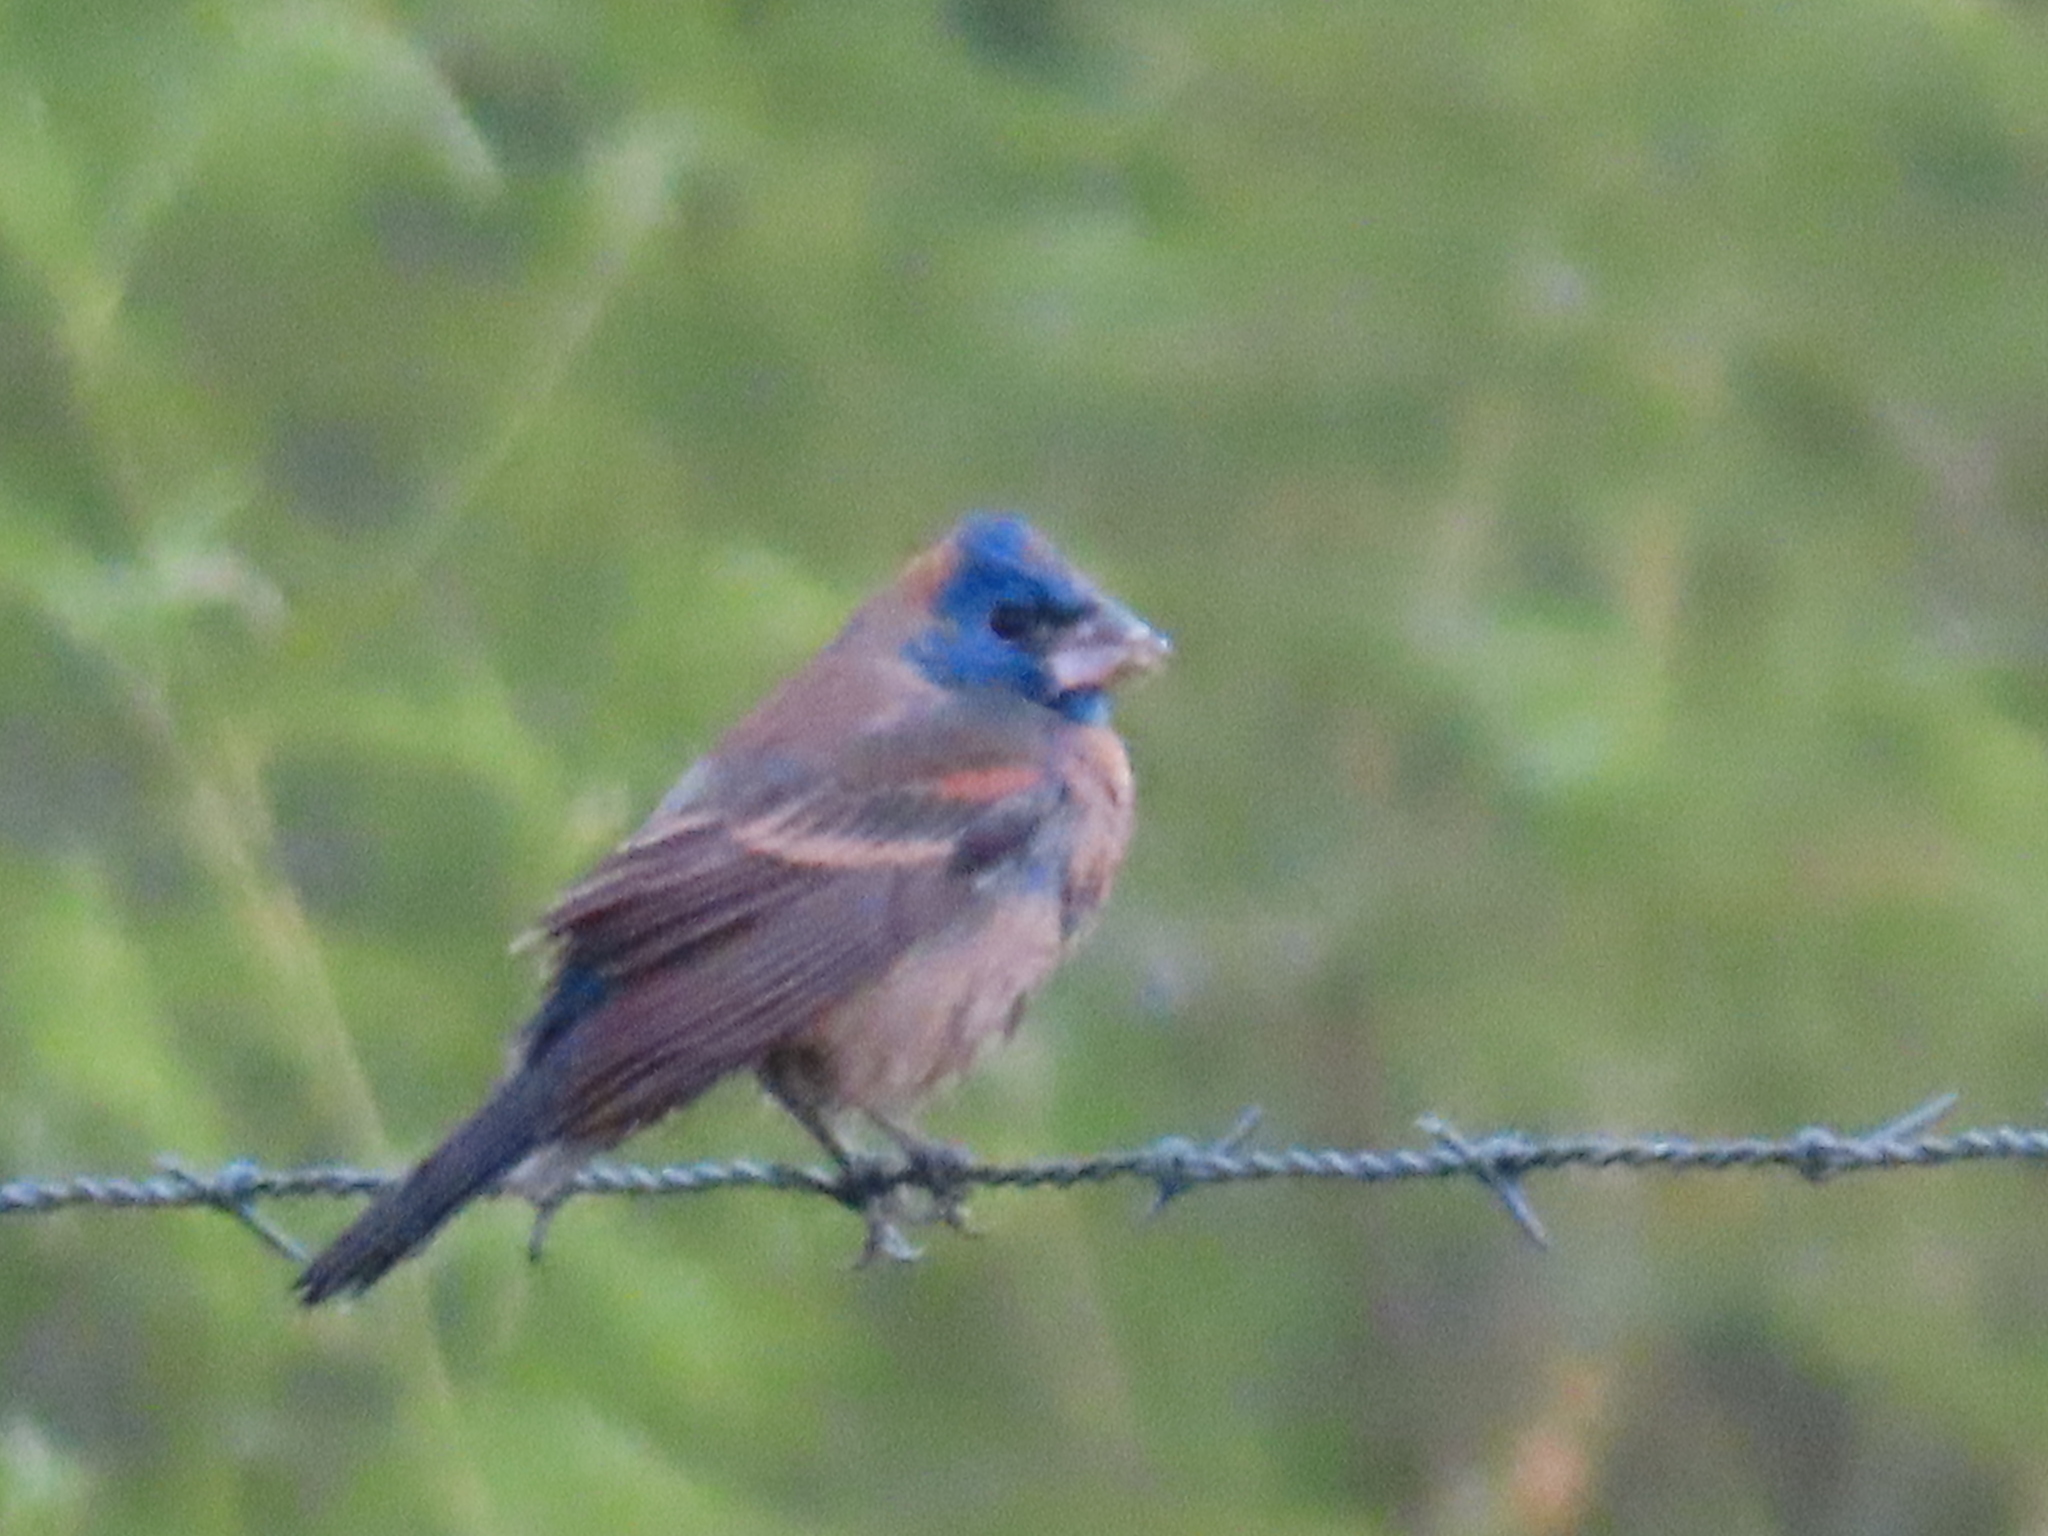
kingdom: Animalia
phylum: Chordata
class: Aves
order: Passeriformes
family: Cardinalidae
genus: Passerina
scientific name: Passerina caerulea
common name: Blue grosbeak
